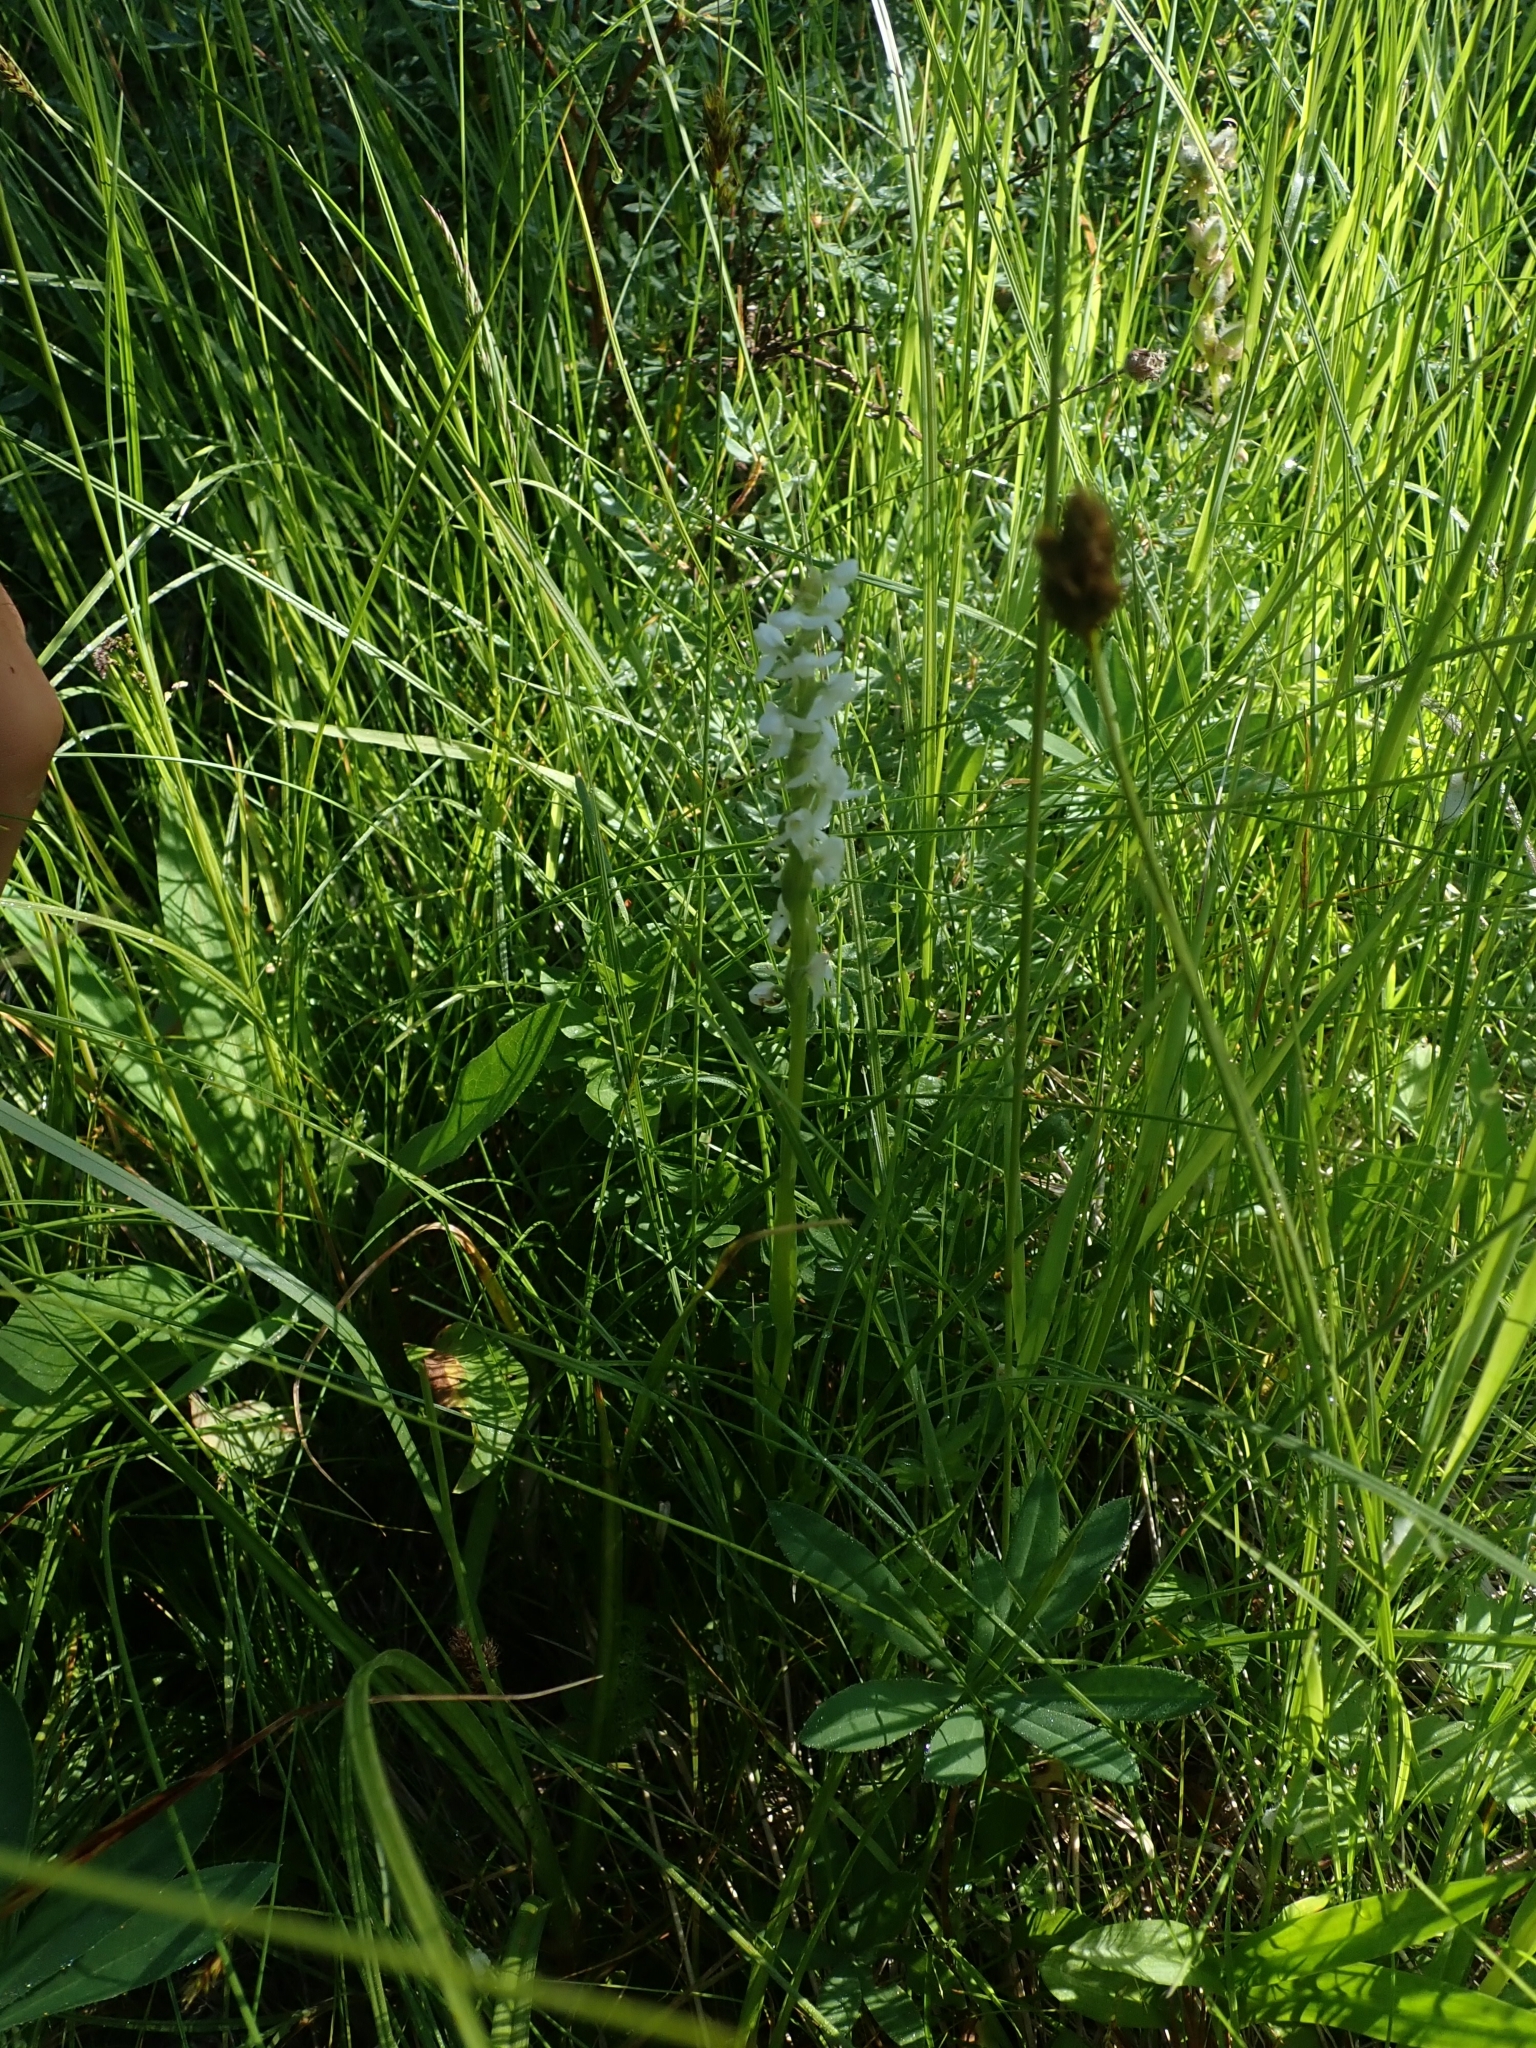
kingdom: Plantae
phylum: Tracheophyta
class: Liliopsida
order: Asparagales
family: Orchidaceae
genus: Platanthera
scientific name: Platanthera dilatata
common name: Bog candles
